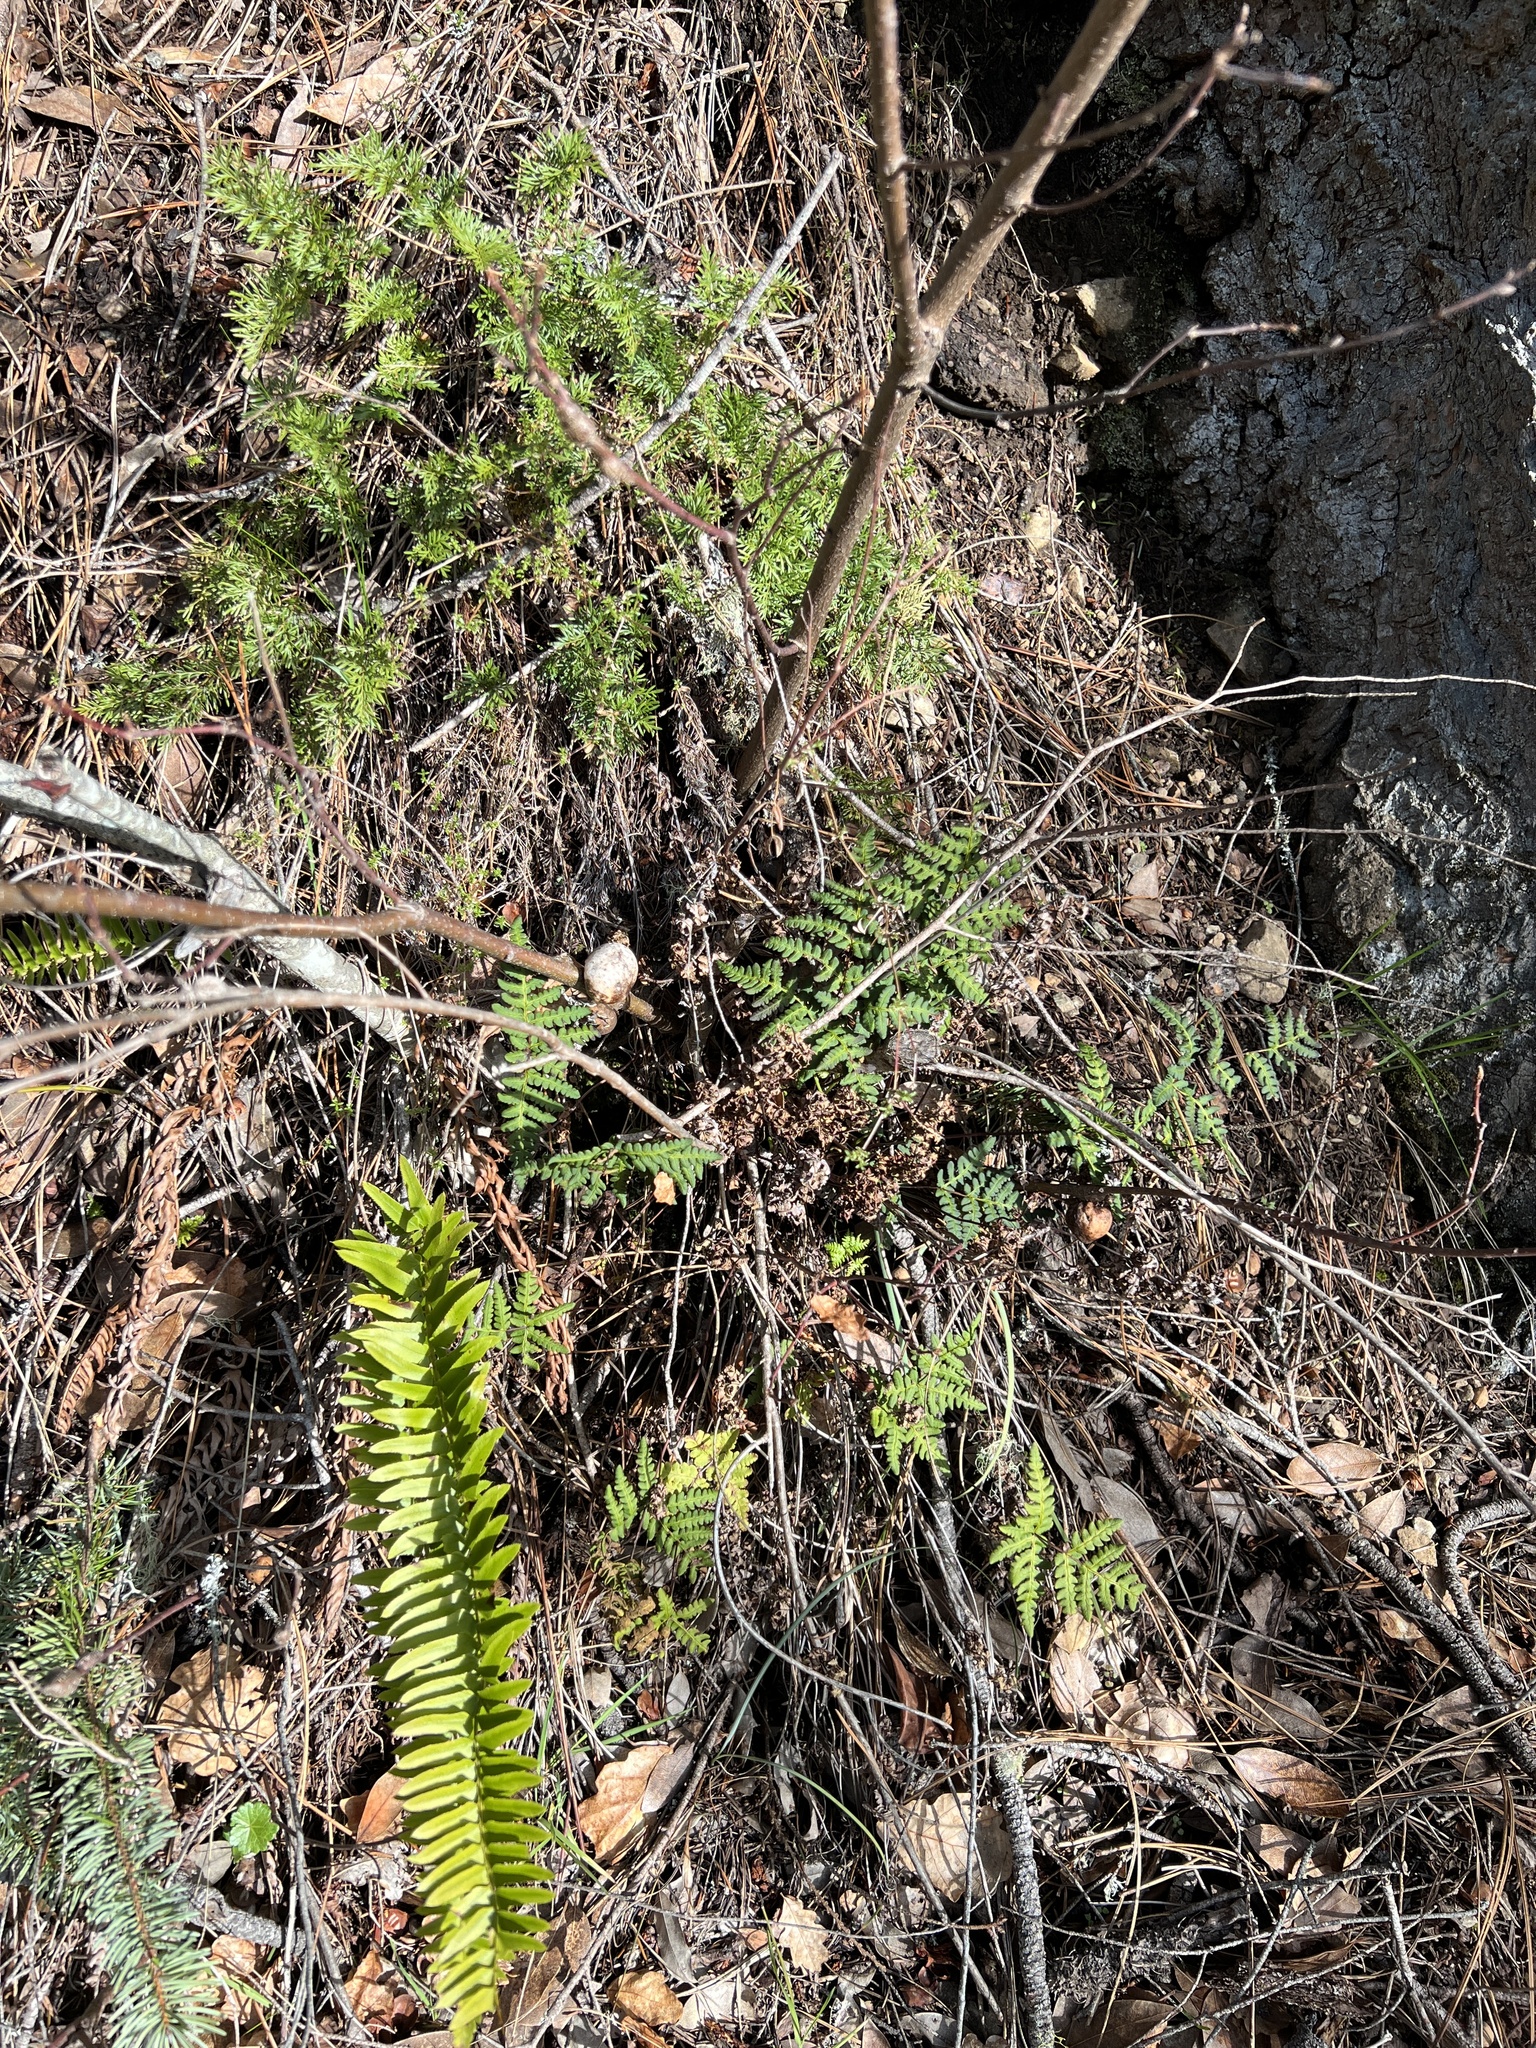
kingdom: Plantae
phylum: Tracheophyta
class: Polypodiopsida
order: Polypodiales
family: Pteridaceae
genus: Pentagramma
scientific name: Pentagramma triangularis
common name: Gold fern
